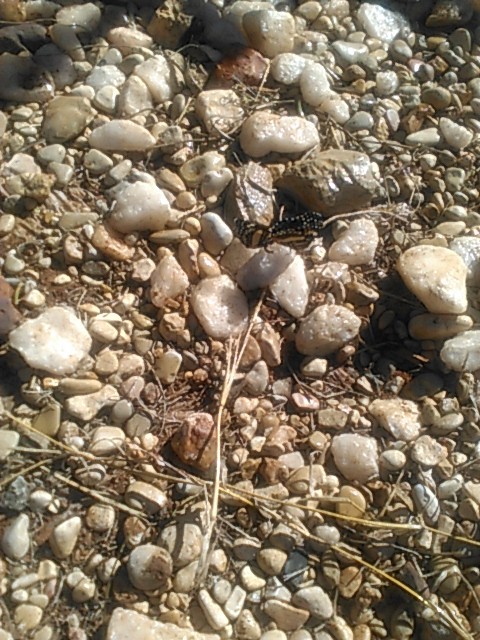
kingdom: Animalia
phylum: Arthropoda
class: Insecta
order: Lepidoptera
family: Nymphalidae
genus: Chlosyne
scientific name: Chlosyne lacinia
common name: Bordered patch
